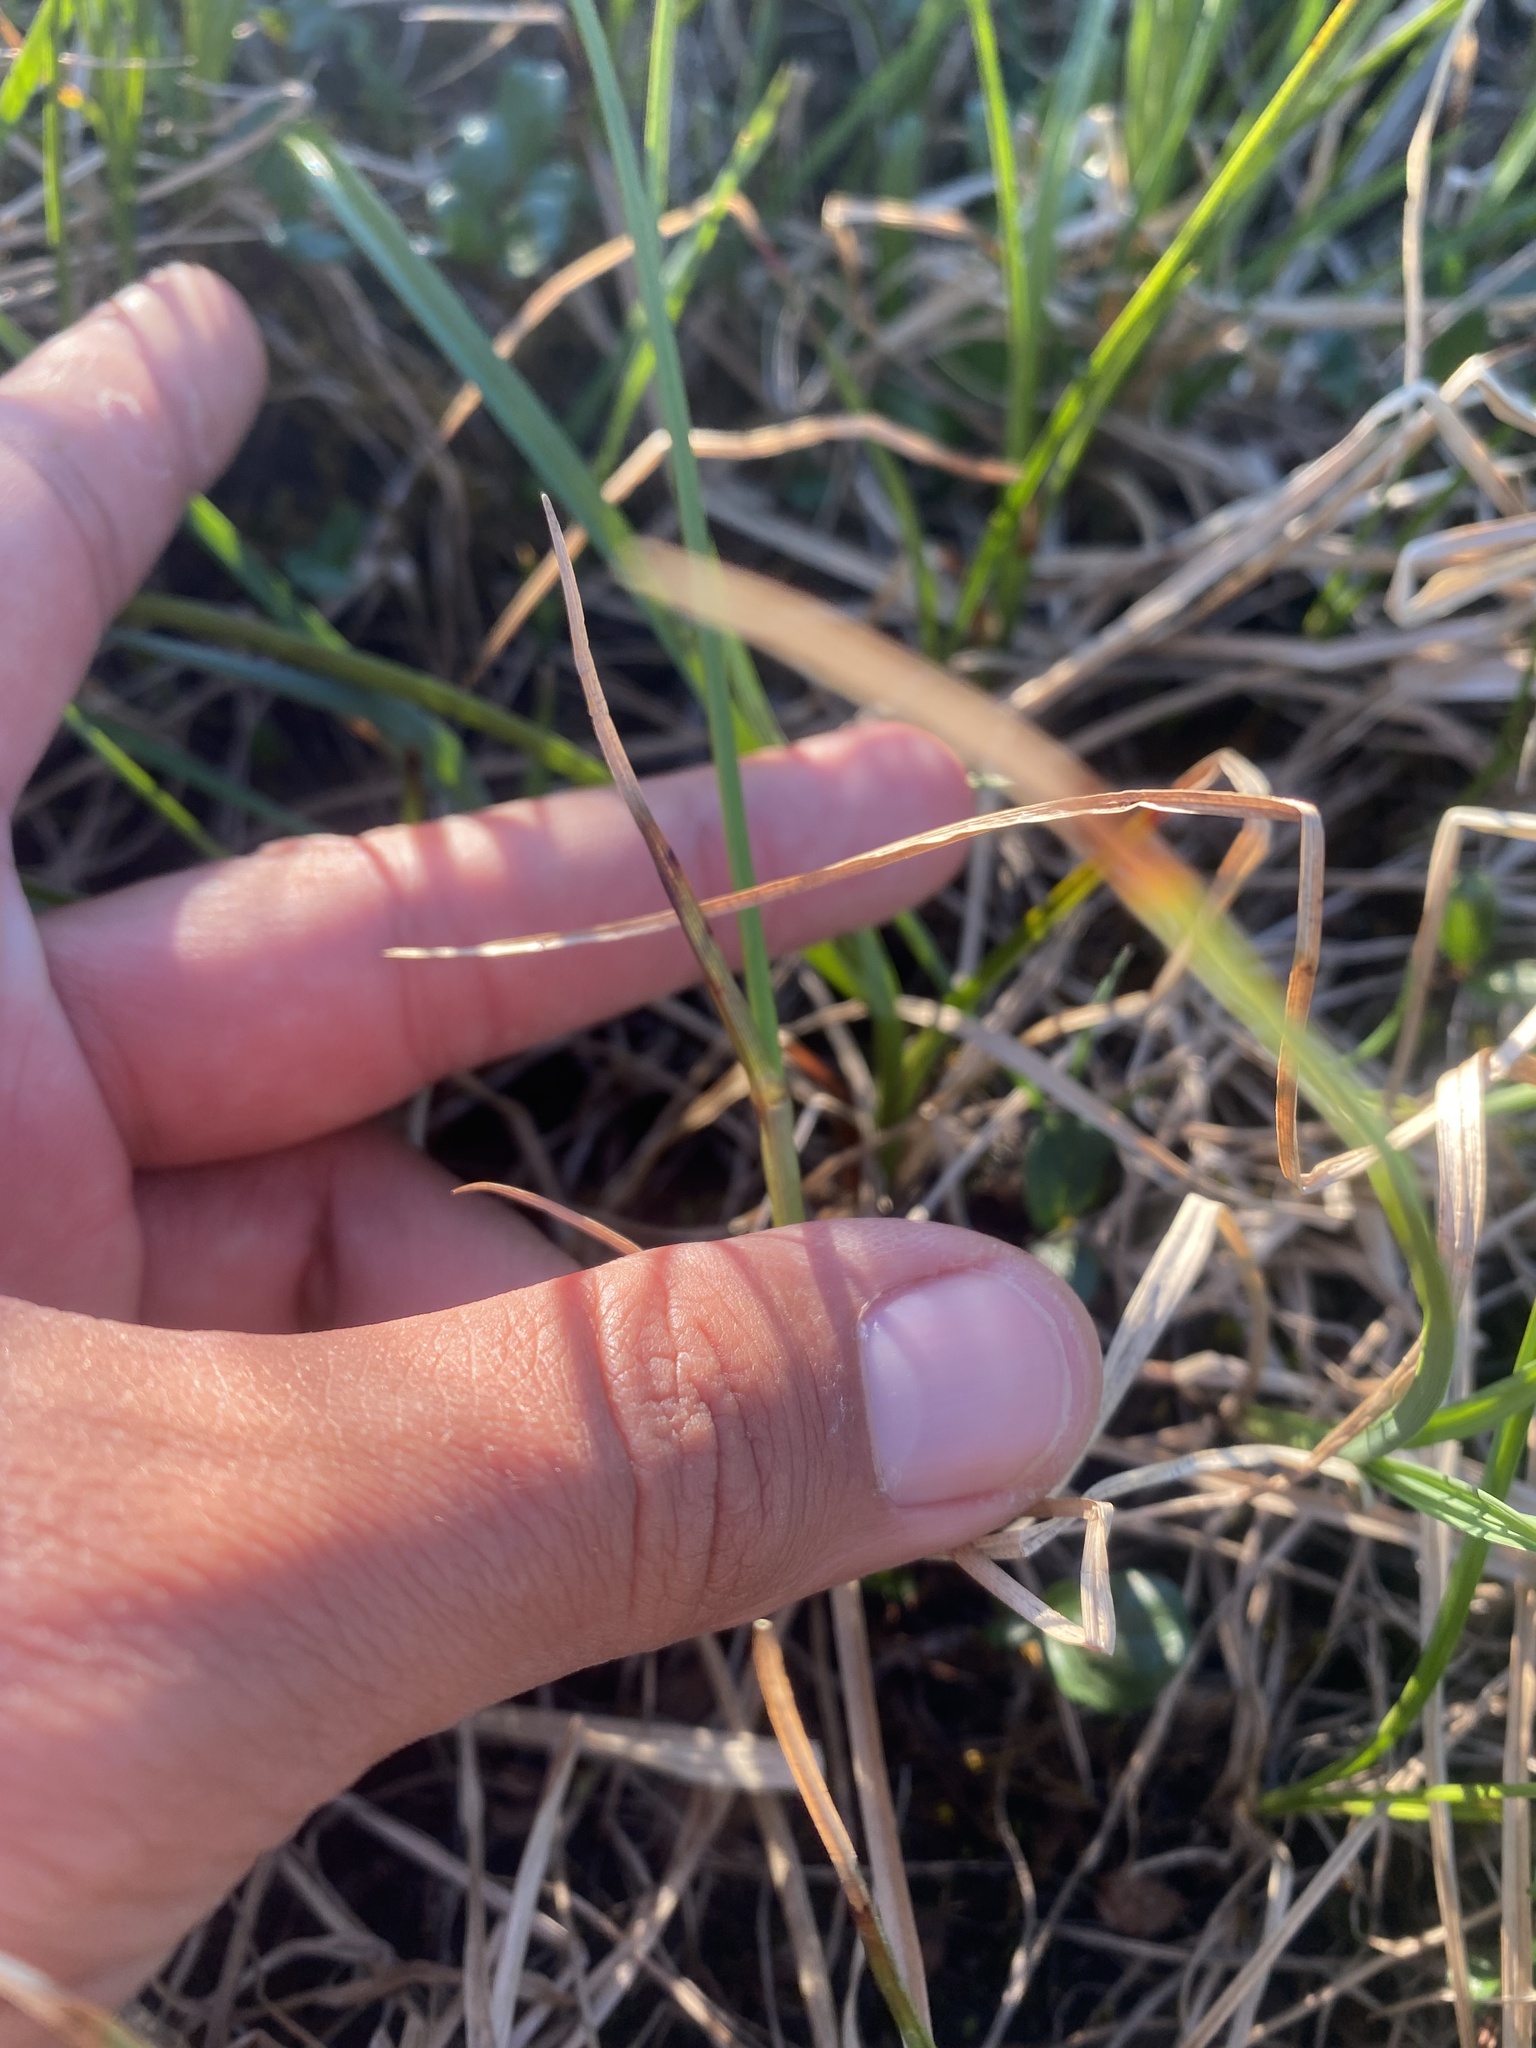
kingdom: Plantae
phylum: Tracheophyta
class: Liliopsida
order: Poales
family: Cyperaceae
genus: Eriophorum
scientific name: Eriophorum angustifolium
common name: Common cottongrass
